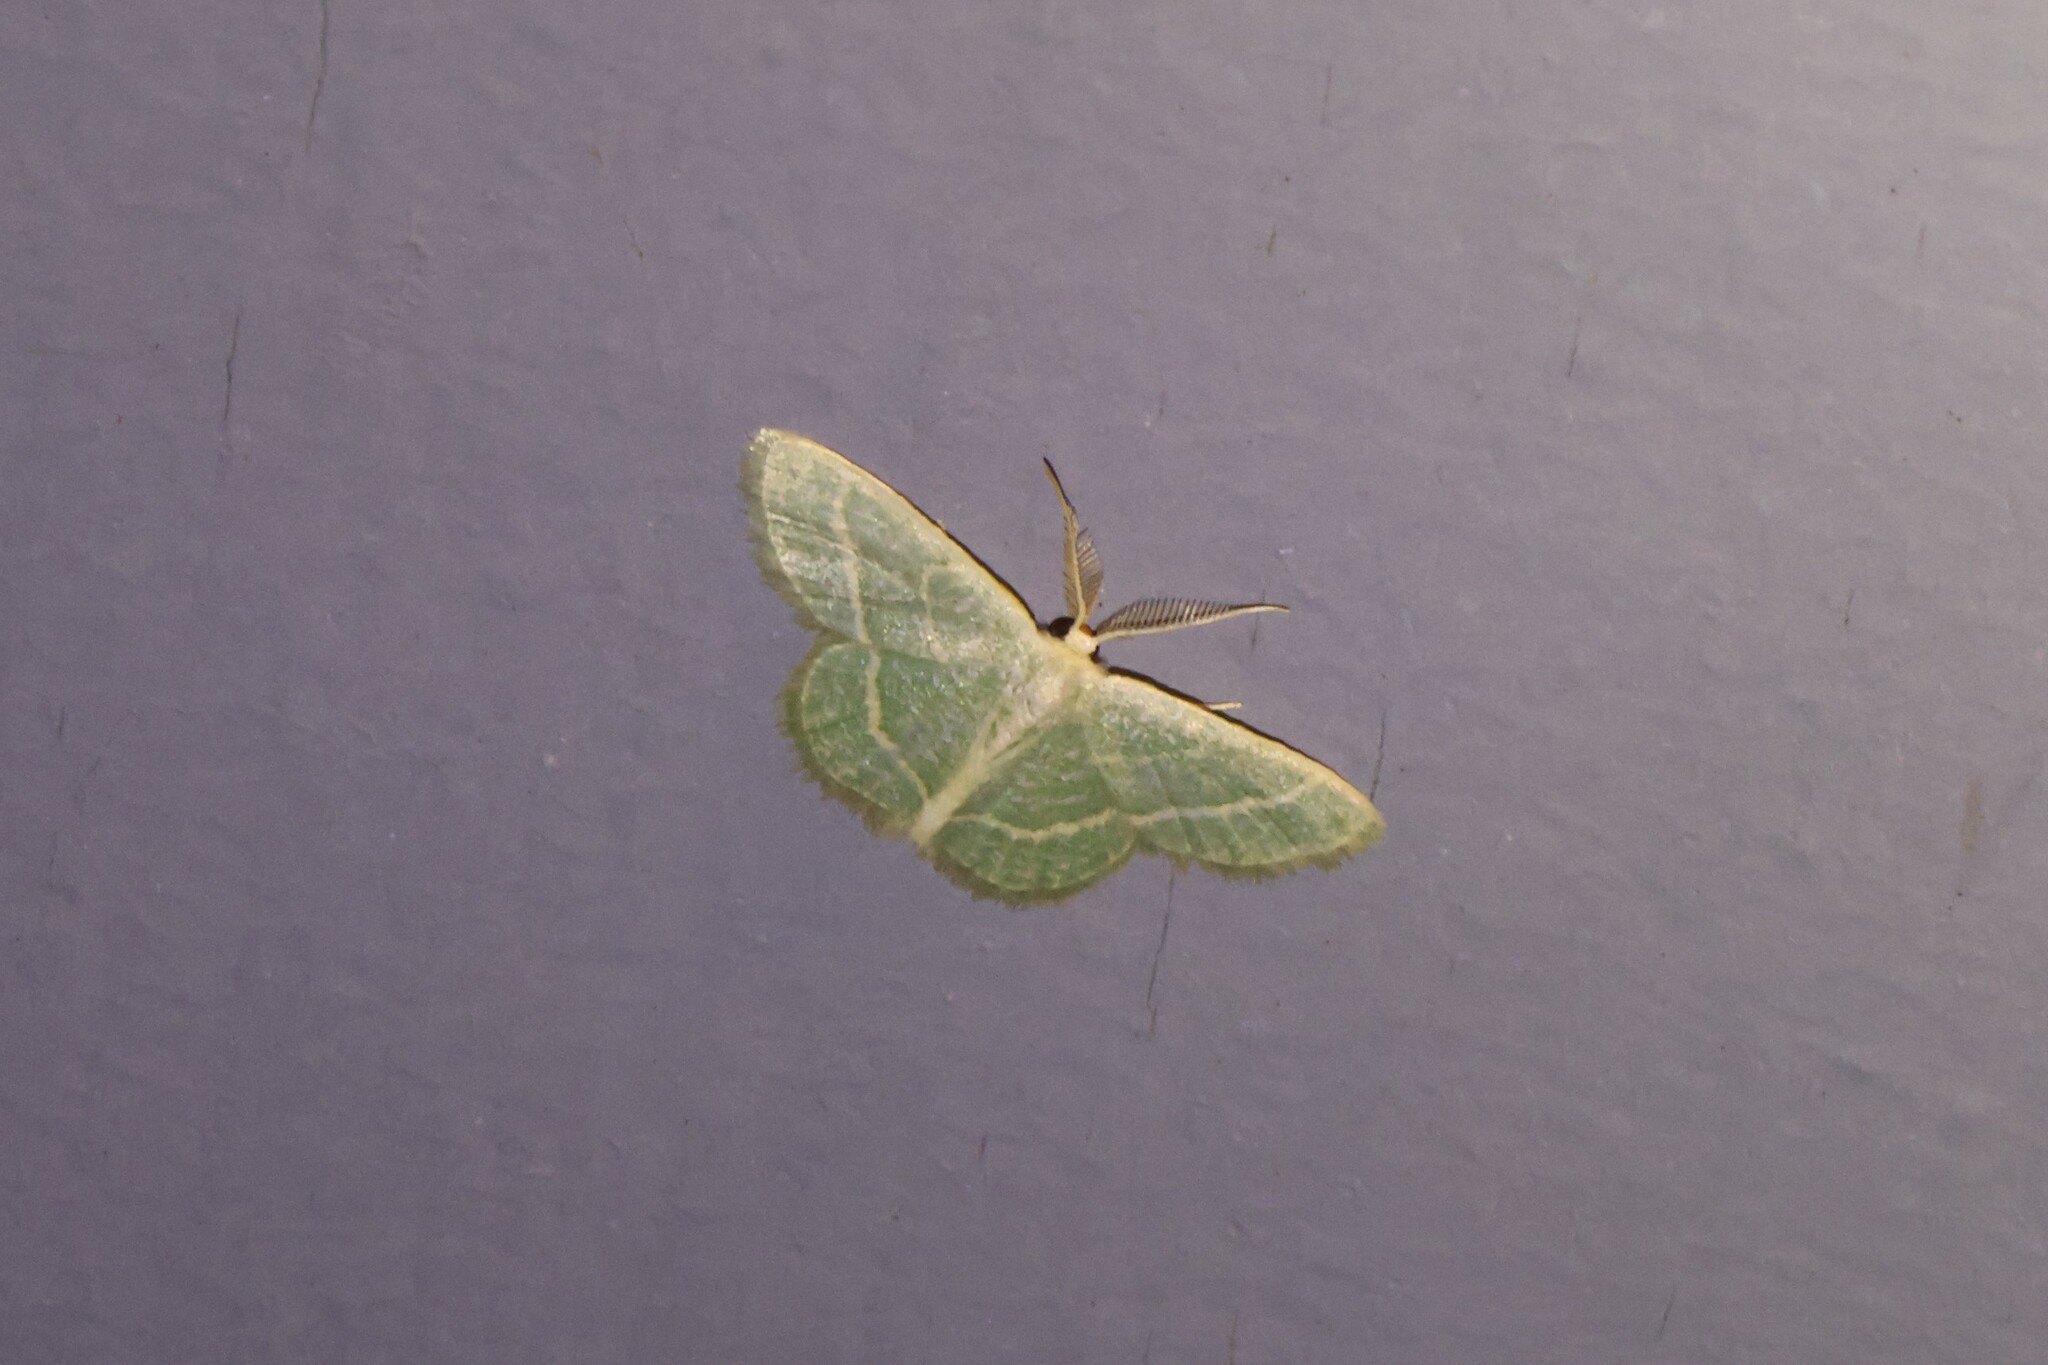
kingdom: Animalia
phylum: Arthropoda
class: Insecta
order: Lepidoptera
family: Geometridae
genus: Chlorochlamys
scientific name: Chlorochlamys chloroleucaria
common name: Blackberry looper
